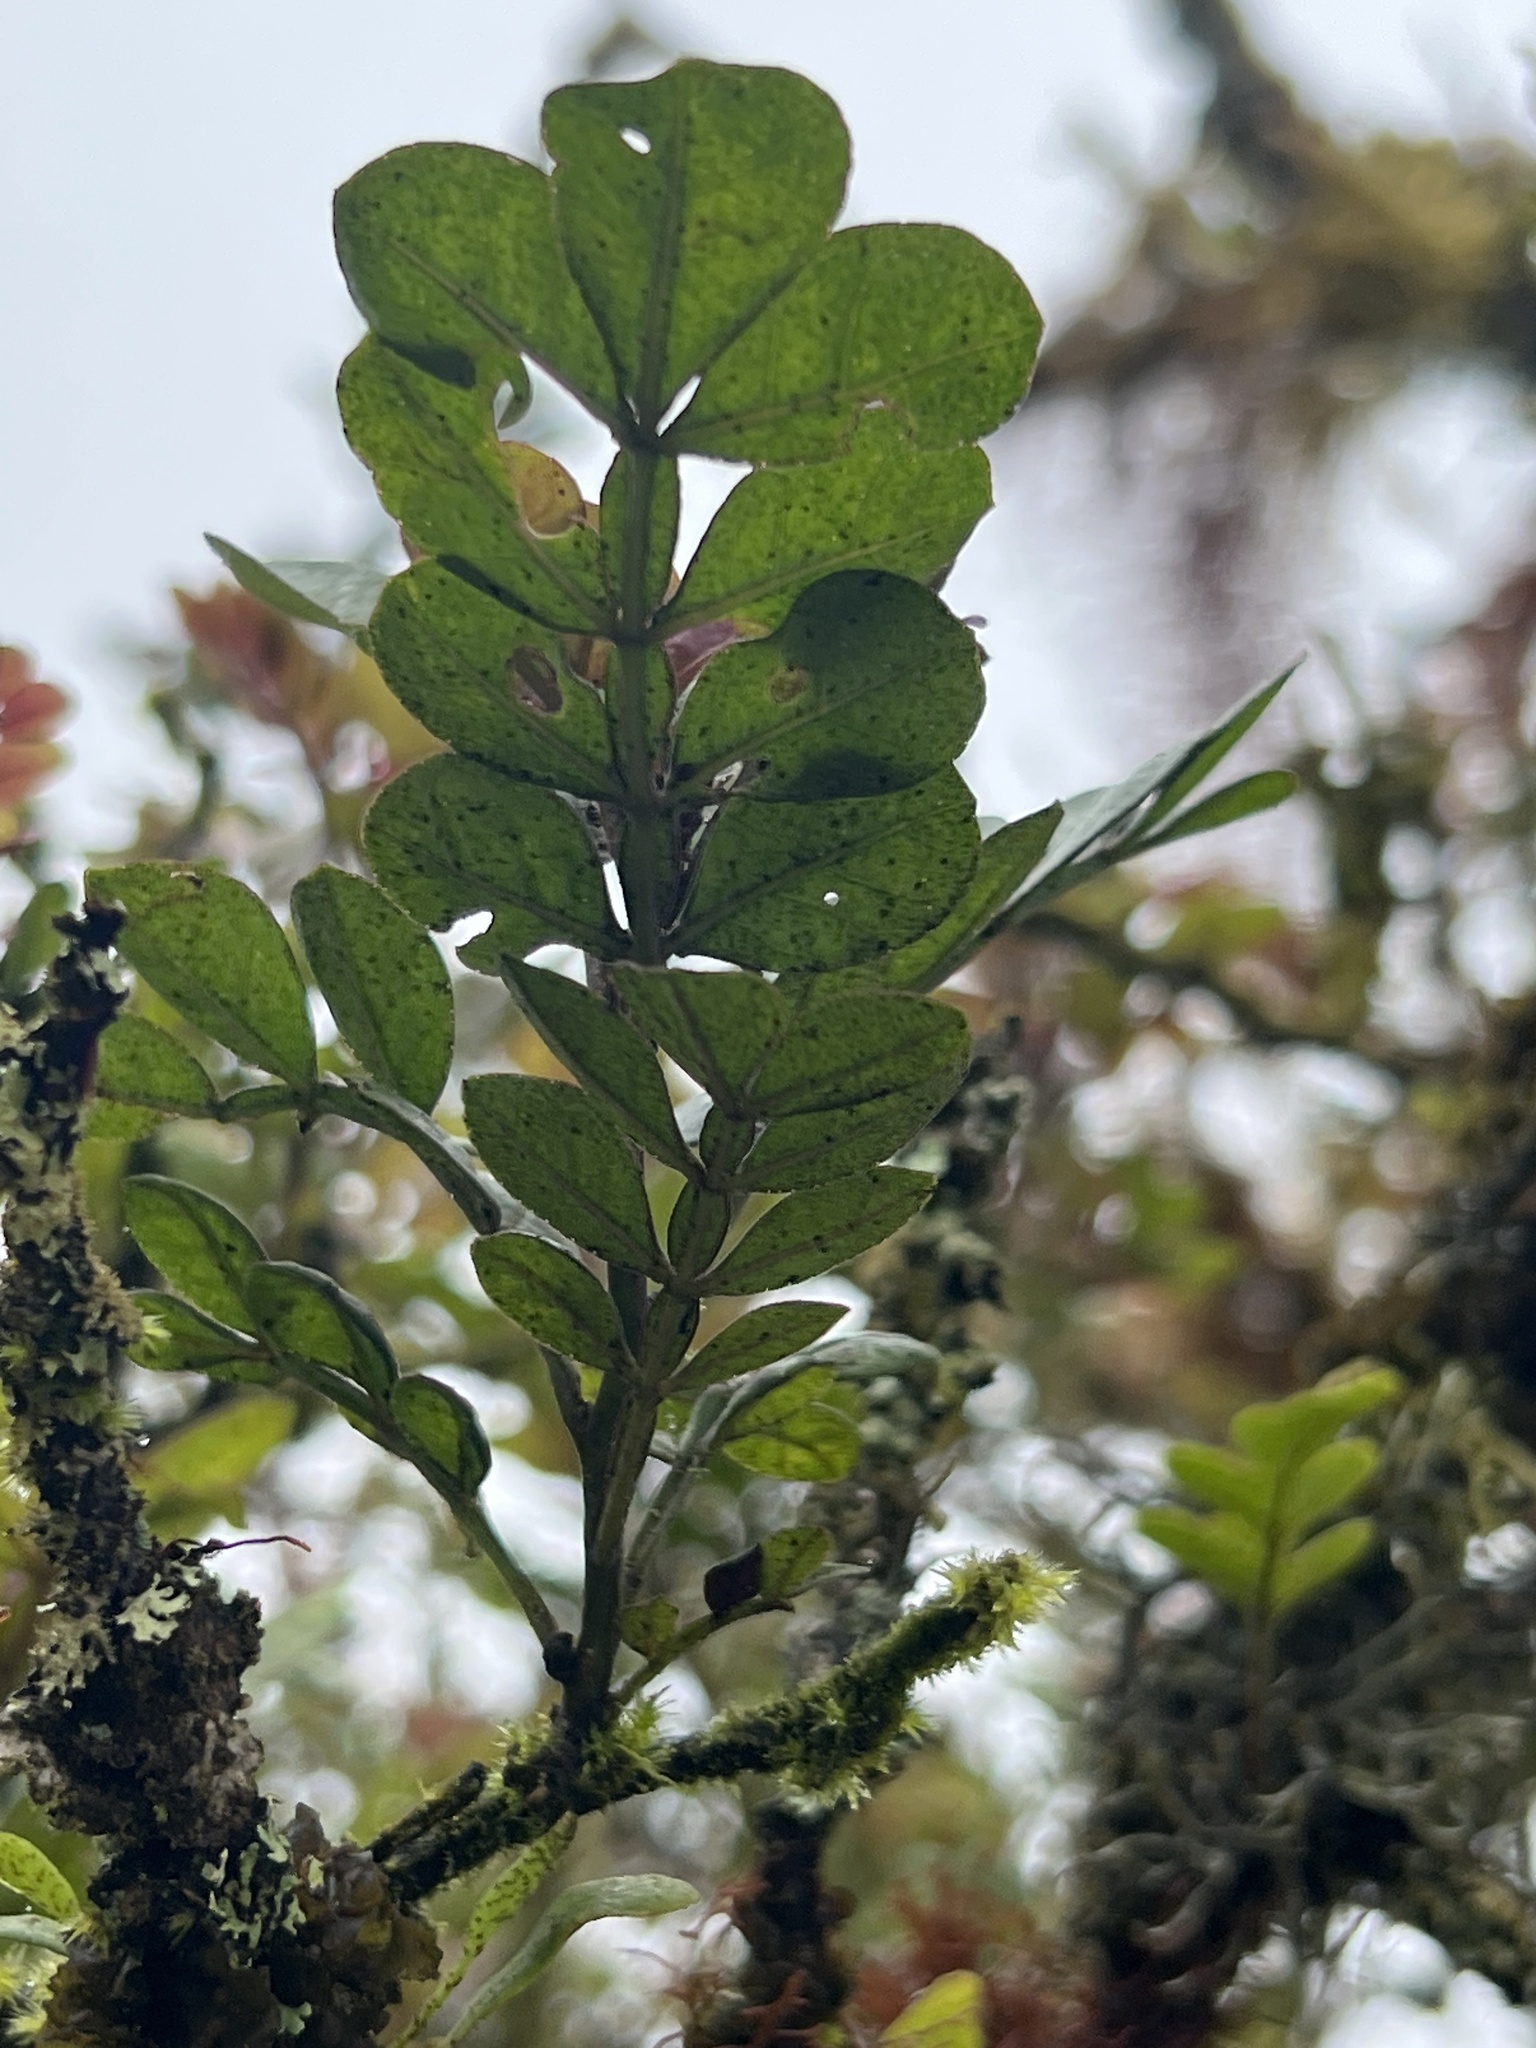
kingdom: Plantae
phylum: Tracheophyta
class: Magnoliopsida
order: Sapindales
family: Rutaceae
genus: Zanthoxylum
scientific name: Zanthoxylum fagara
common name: Lime prickly-ash
